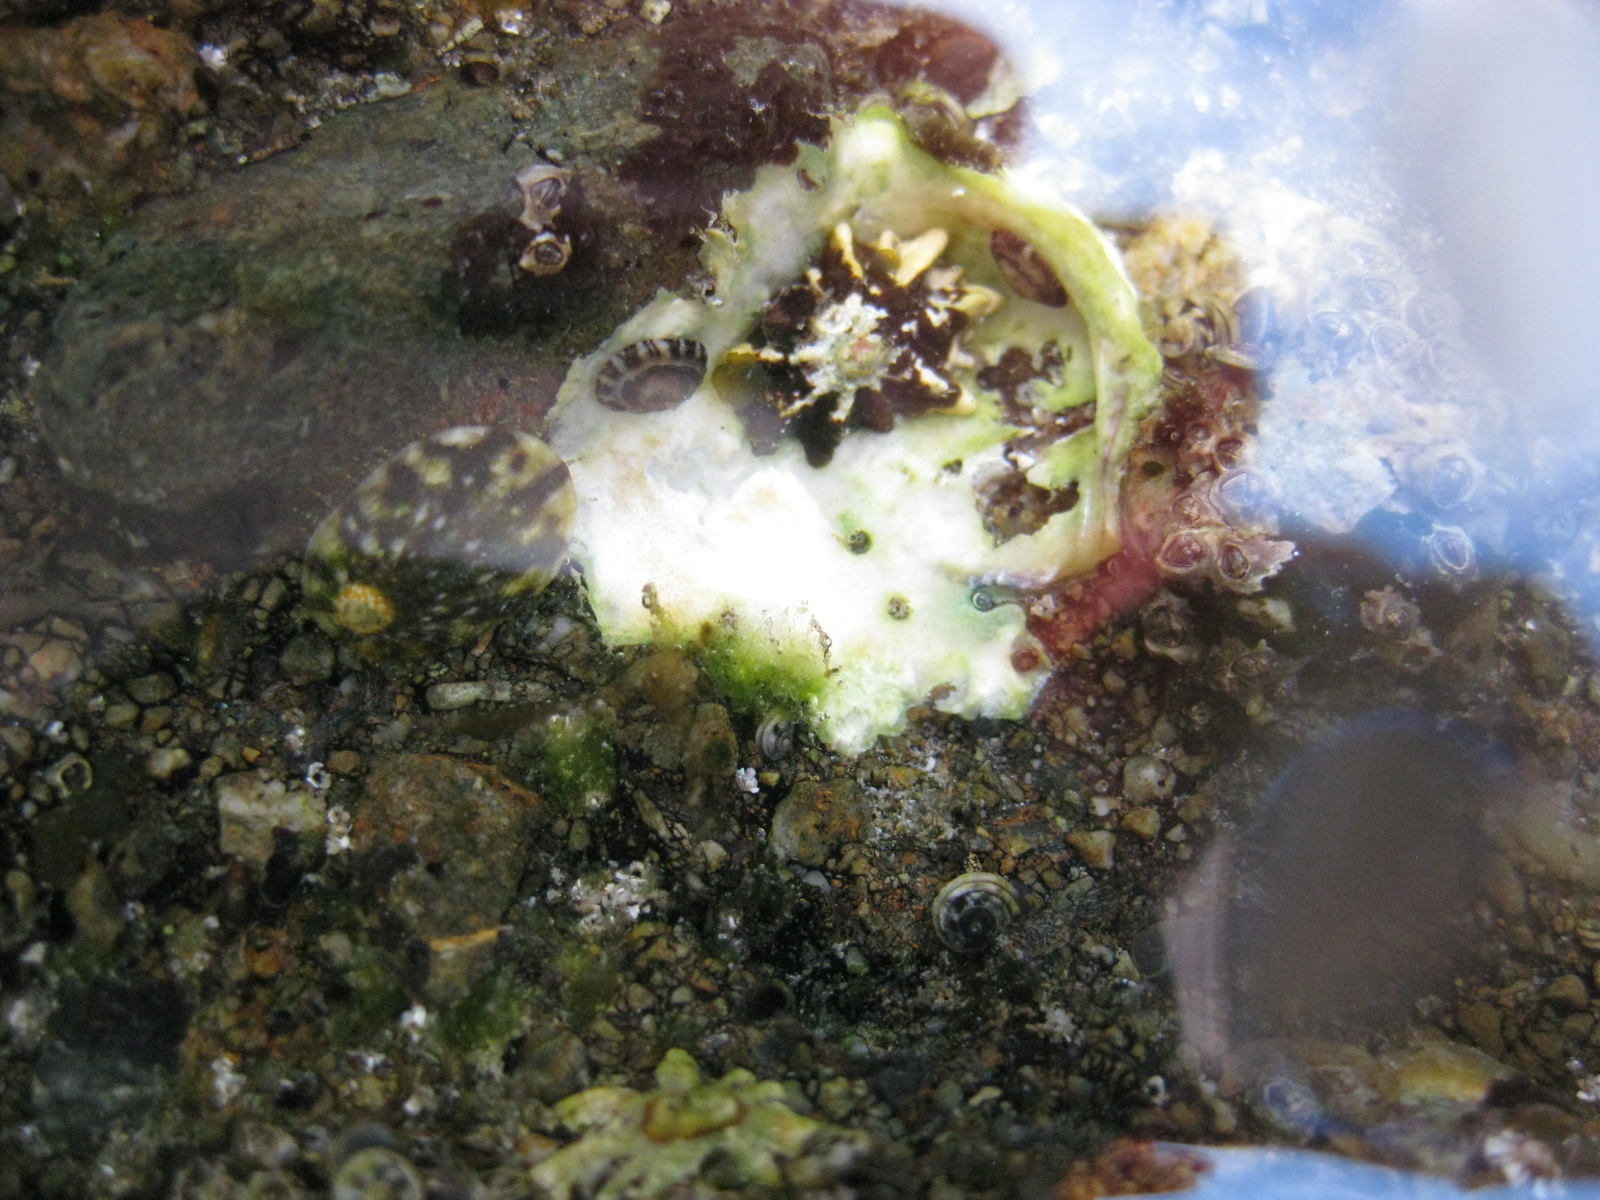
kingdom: Animalia
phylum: Mollusca
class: Gastropoda
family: Nacellidae
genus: Cellana
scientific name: Cellana ornata
